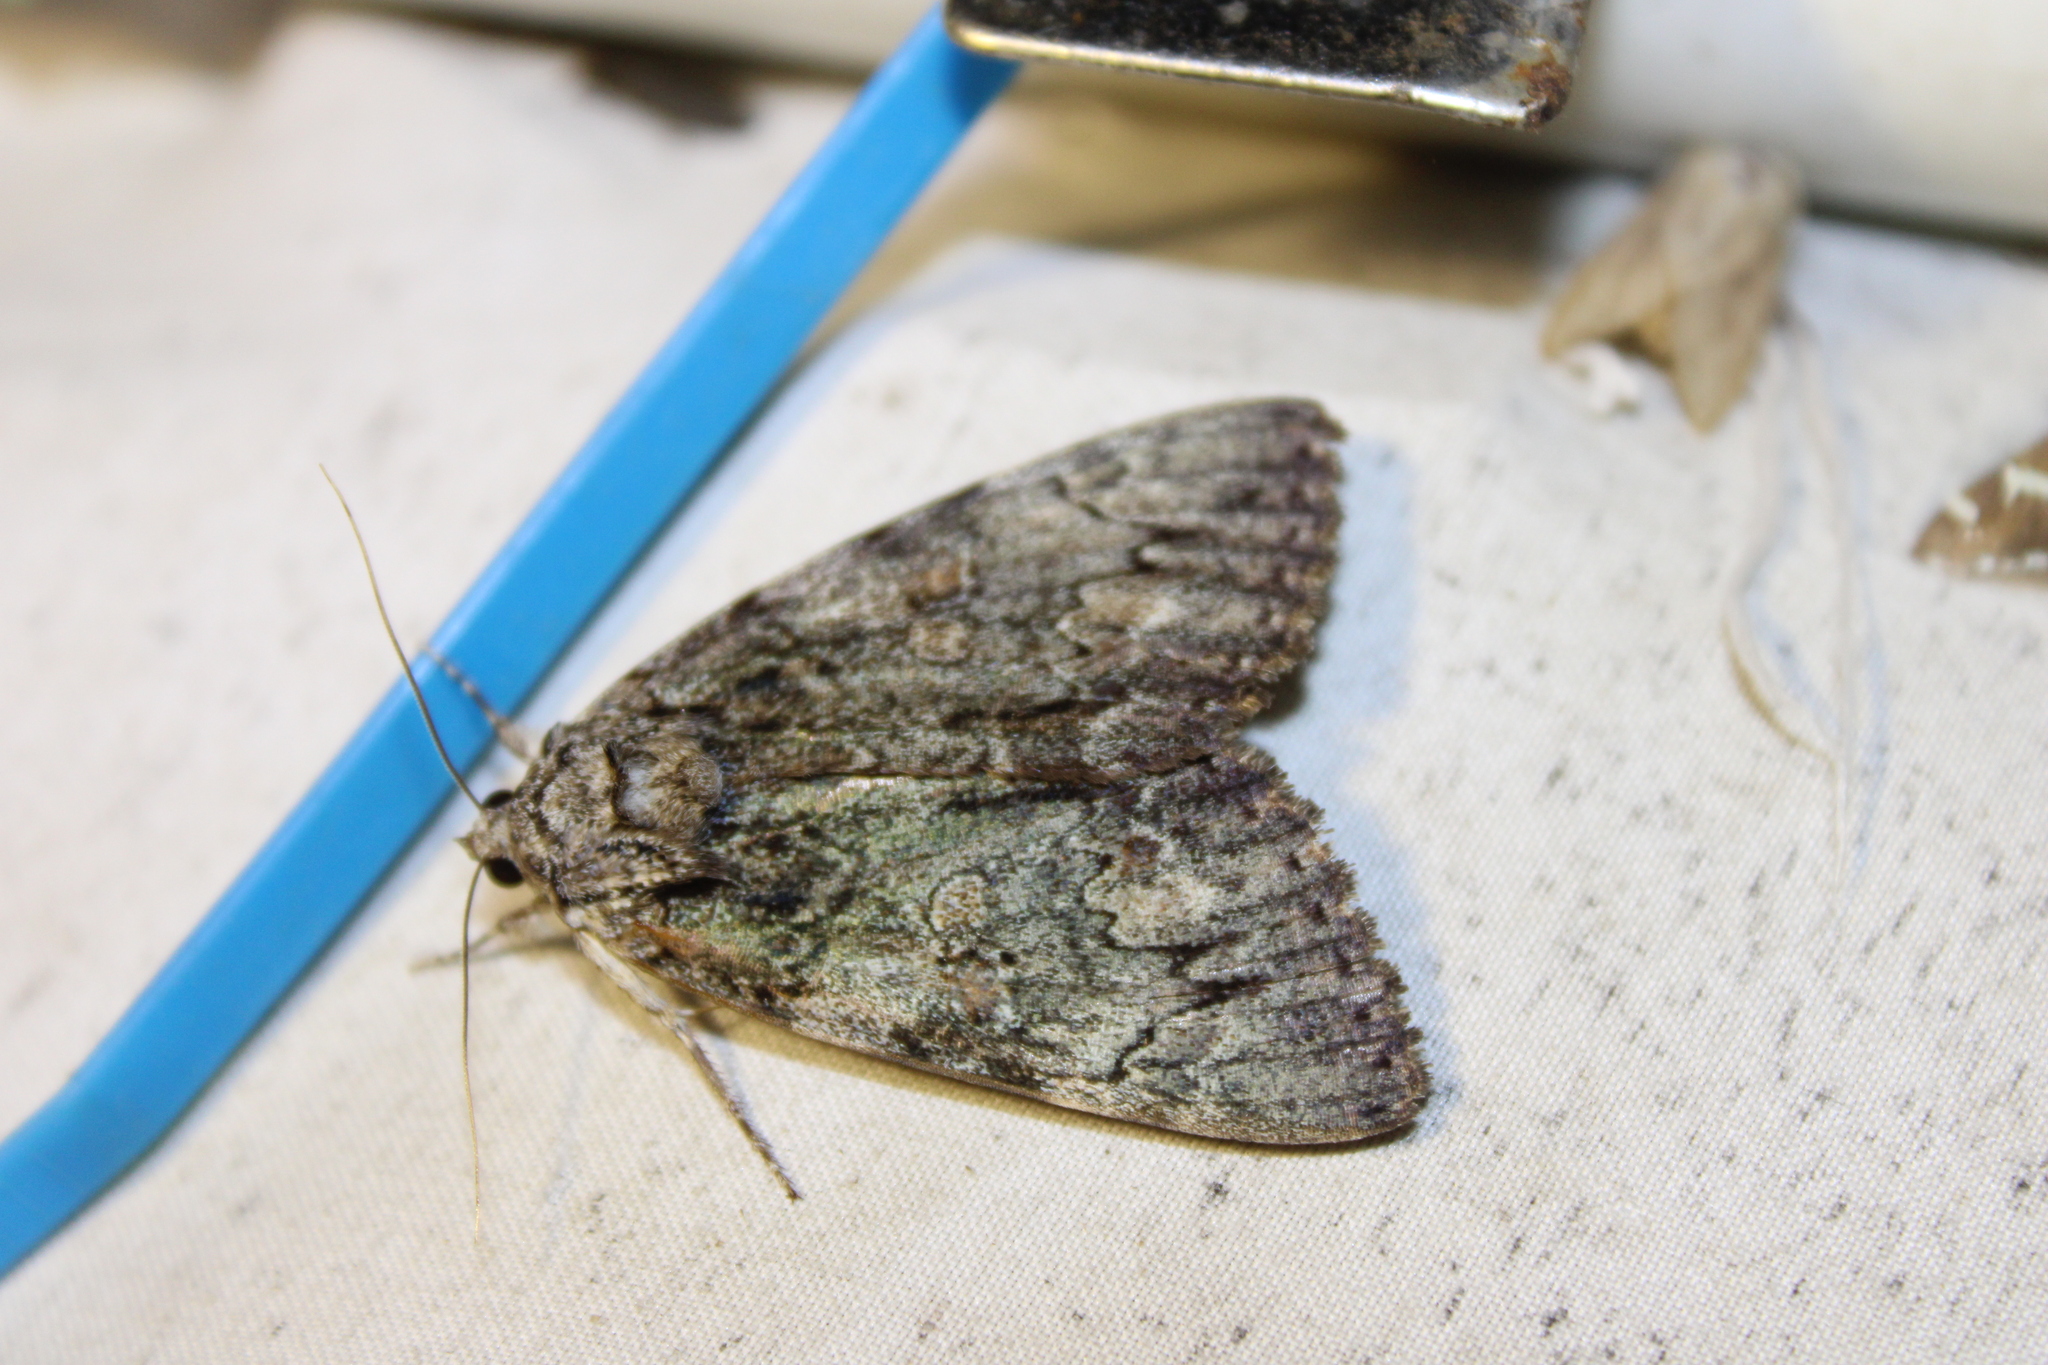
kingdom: Animalia
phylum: Arthropoda
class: Insecta
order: Lepidoptera
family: Erebidae
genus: Catocala
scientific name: Catocala palaeogama
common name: Oldwife underwing
